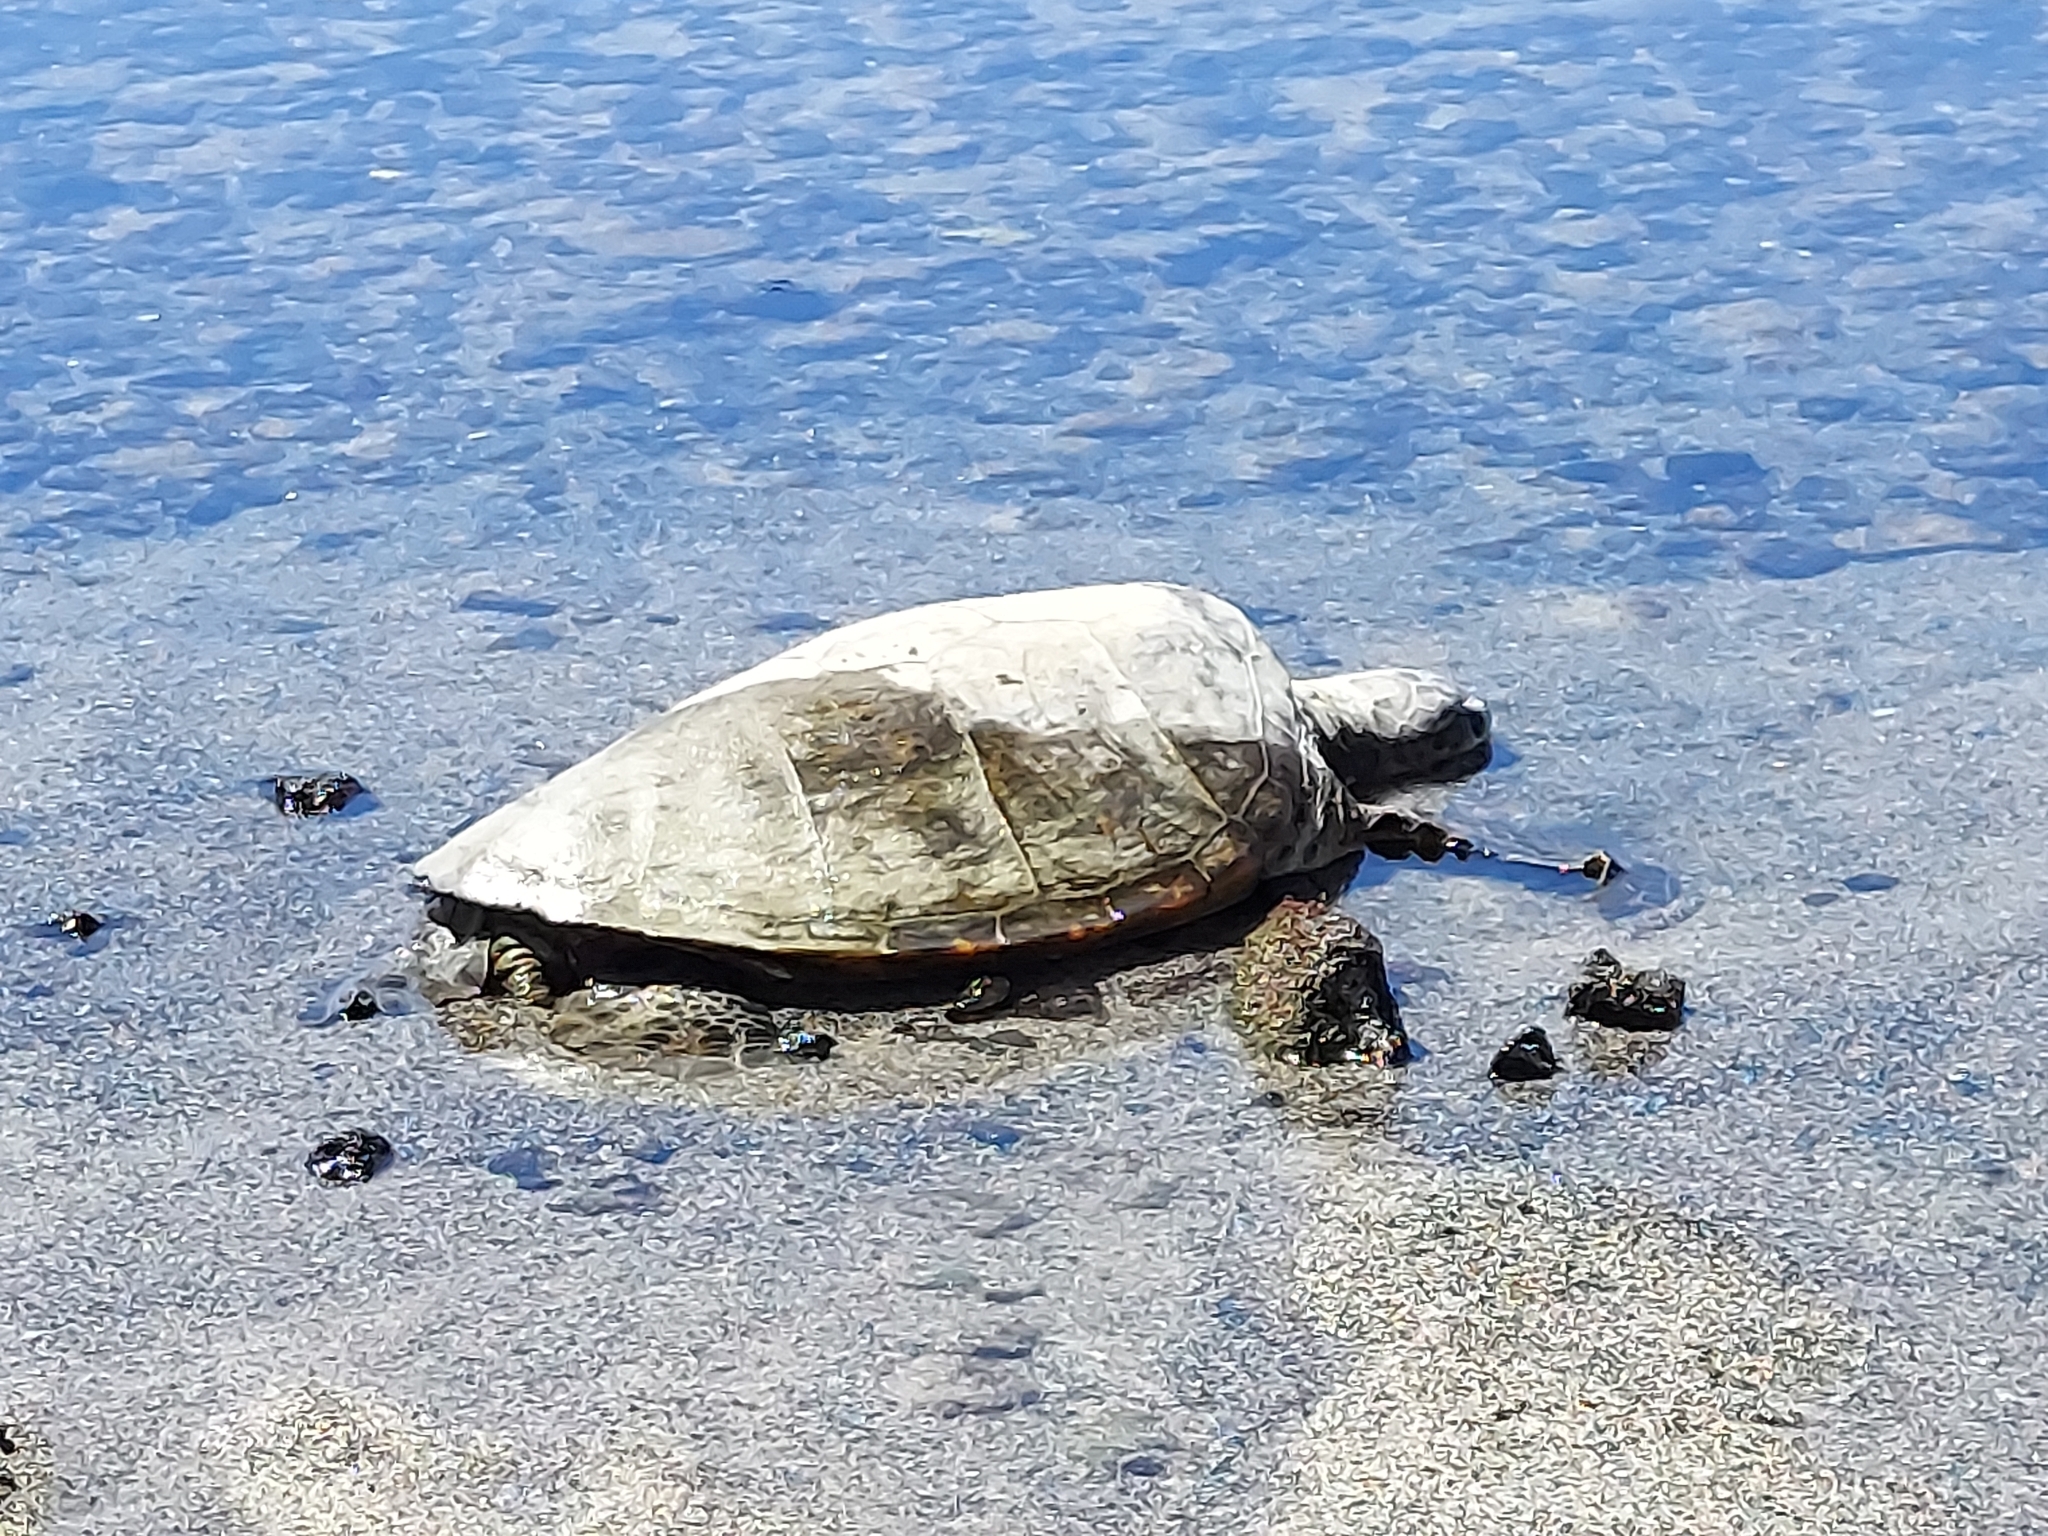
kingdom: Animalia
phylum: Chordata
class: Testudines
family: Cheloniidae
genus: Chelonia
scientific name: Chelonia mydas
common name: Green turtle
